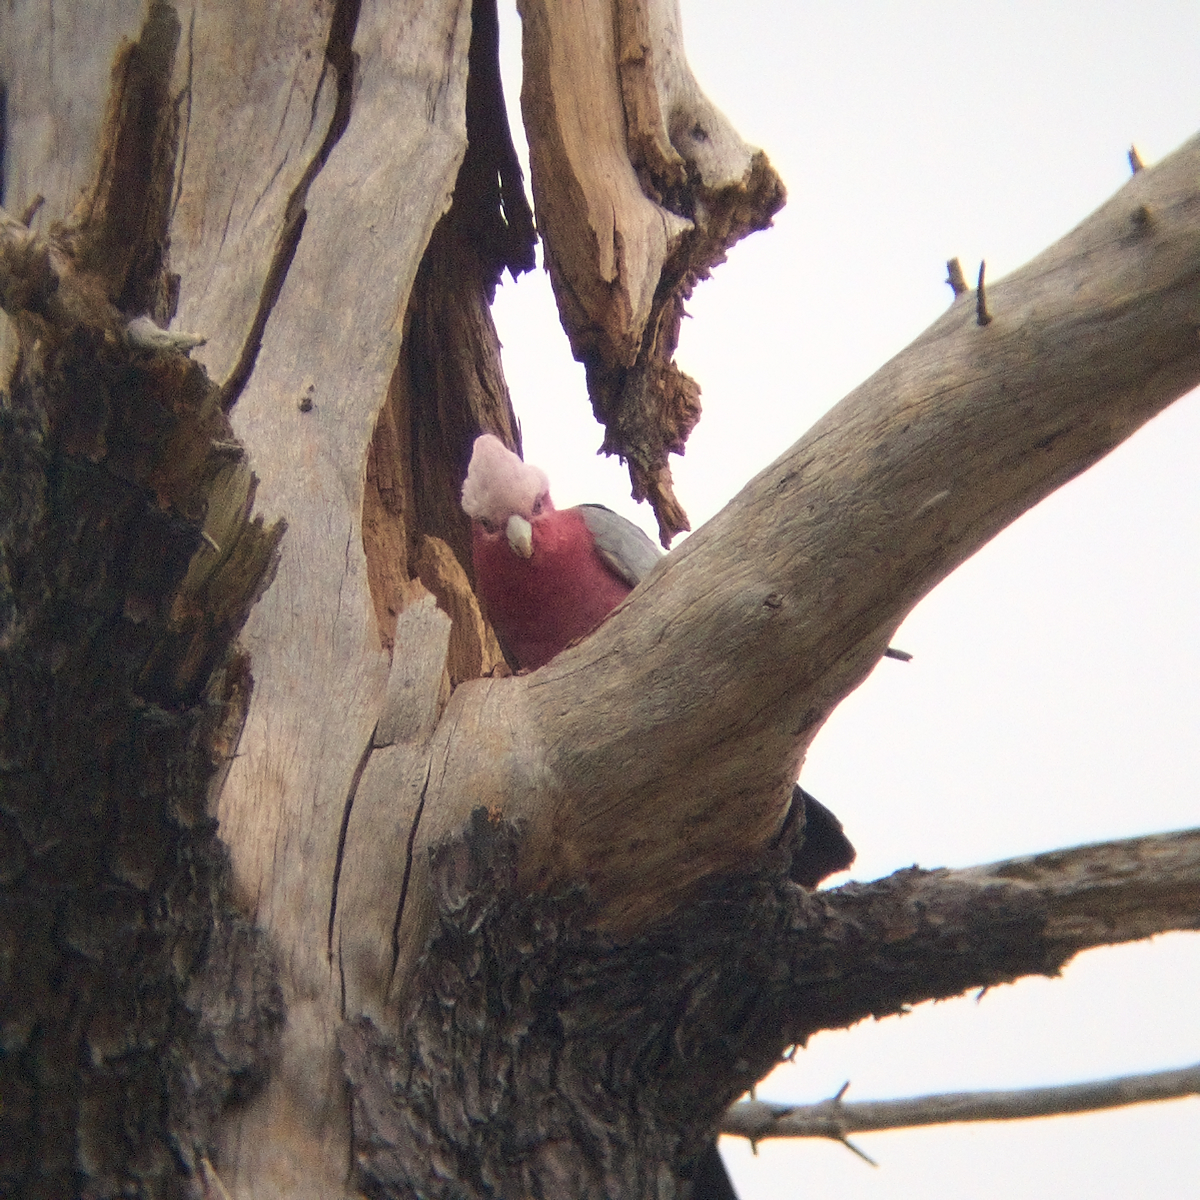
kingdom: Animalia
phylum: Chordata
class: Aves
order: Psittaciformes
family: Psittacidae
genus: Eolophus
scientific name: Eolophus roseicapilla
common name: Galah
